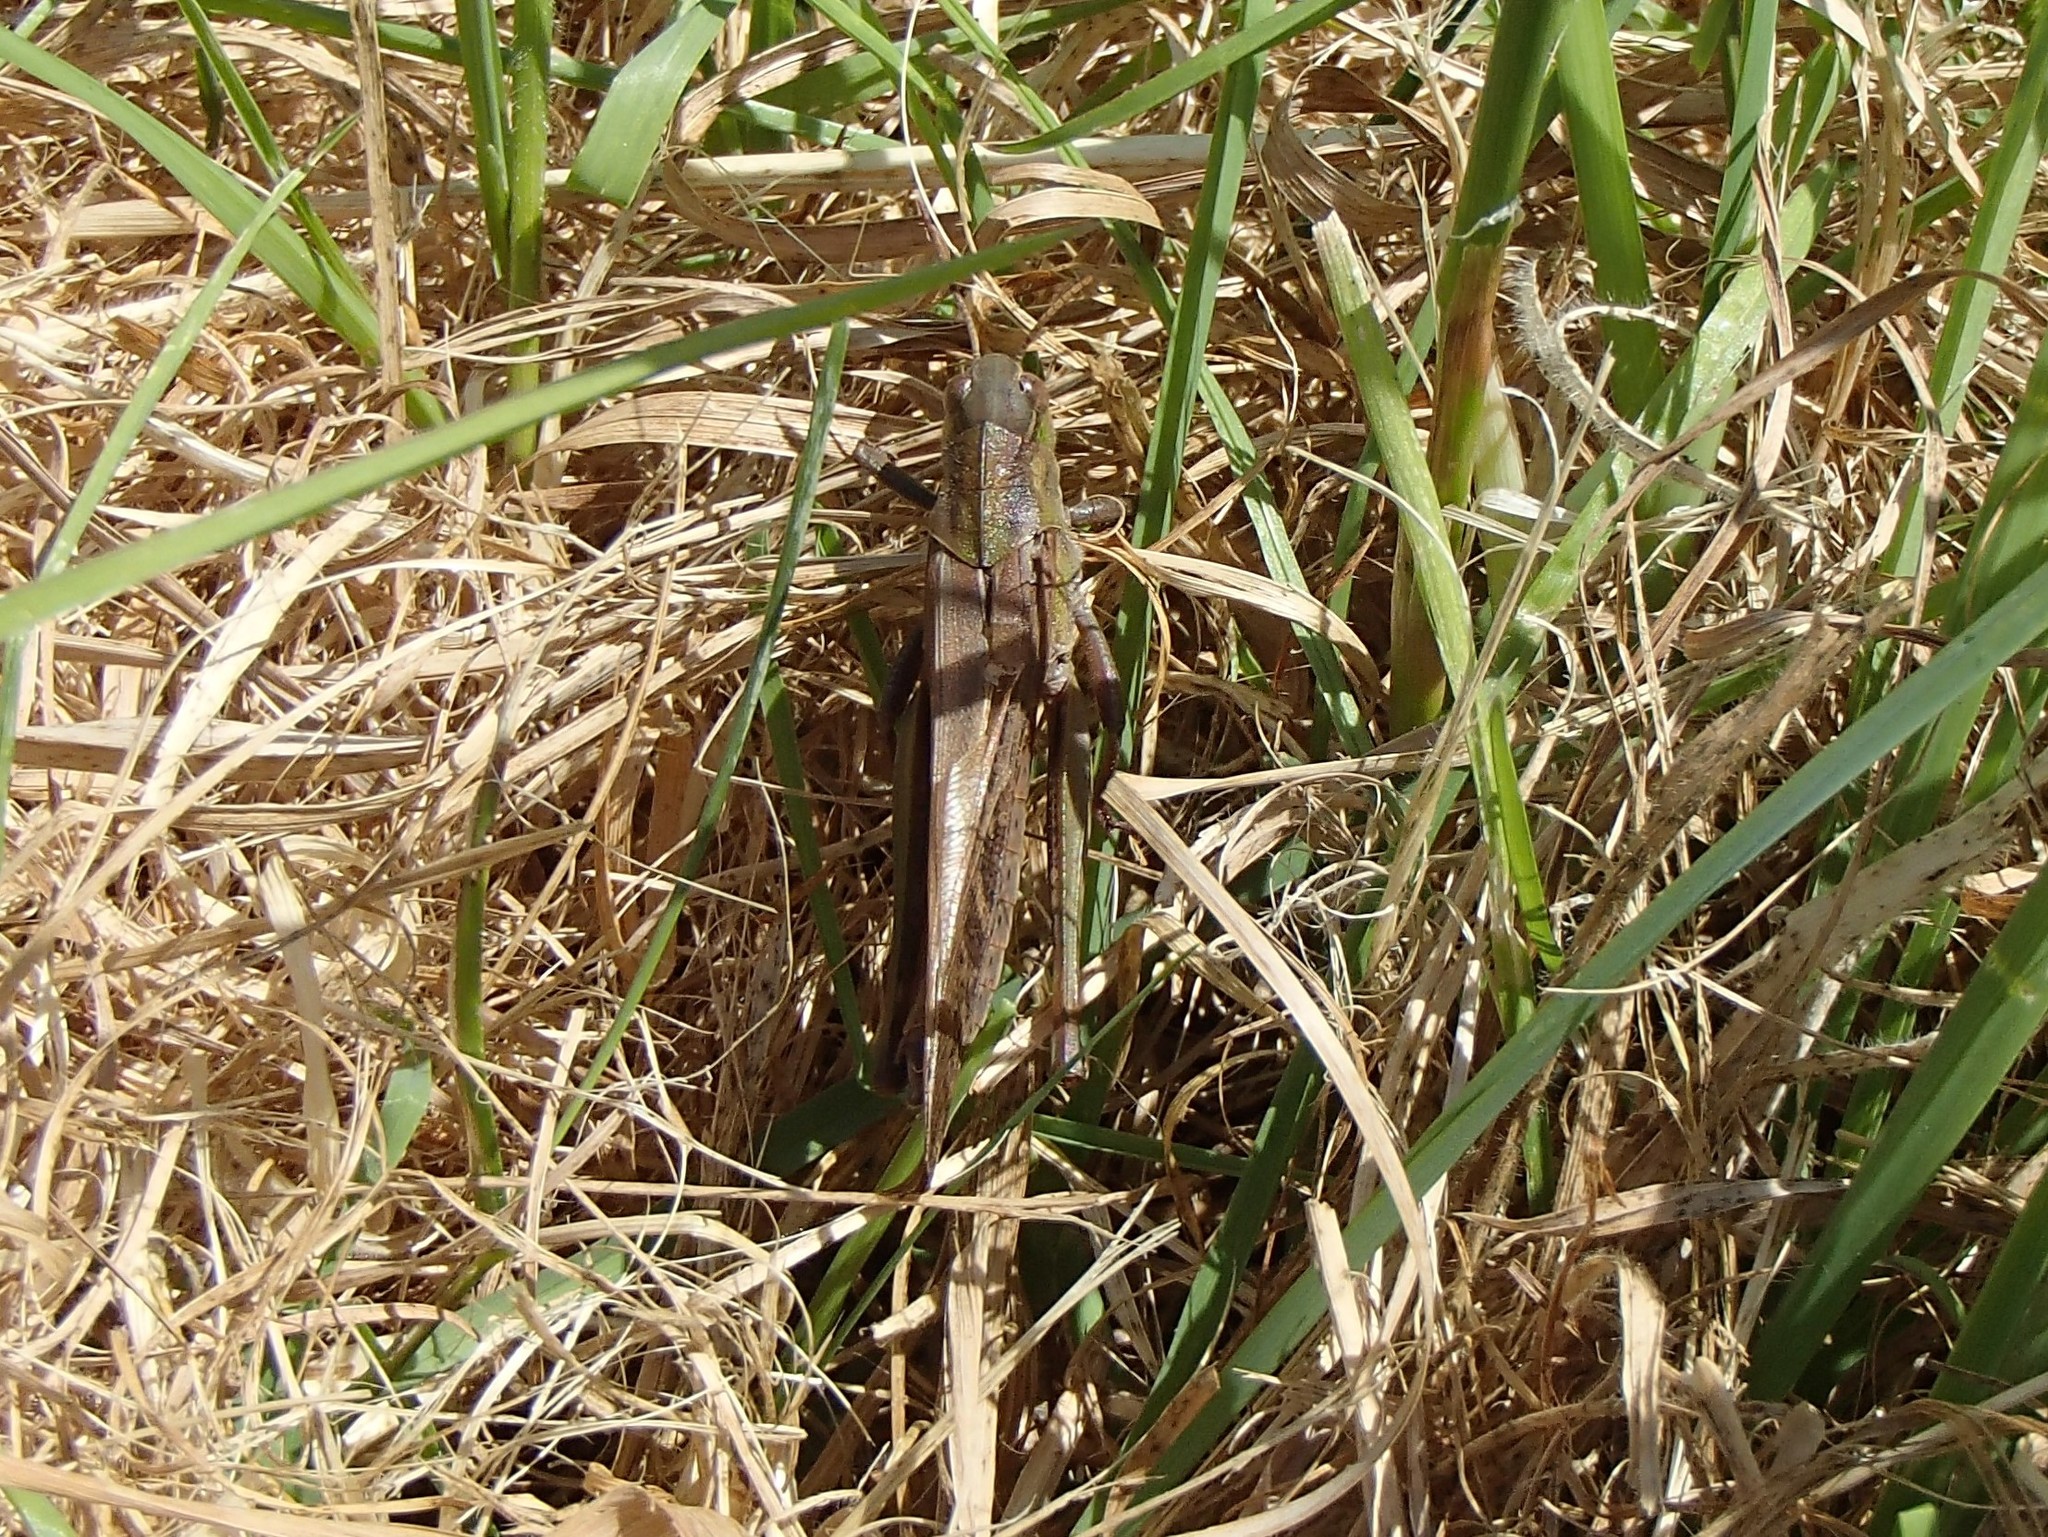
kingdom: Animalia
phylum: Arthropoda
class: Insecta
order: Orthoptera
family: Acrididae
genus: Locusta
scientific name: Locusta migratoria
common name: Migratory locust
